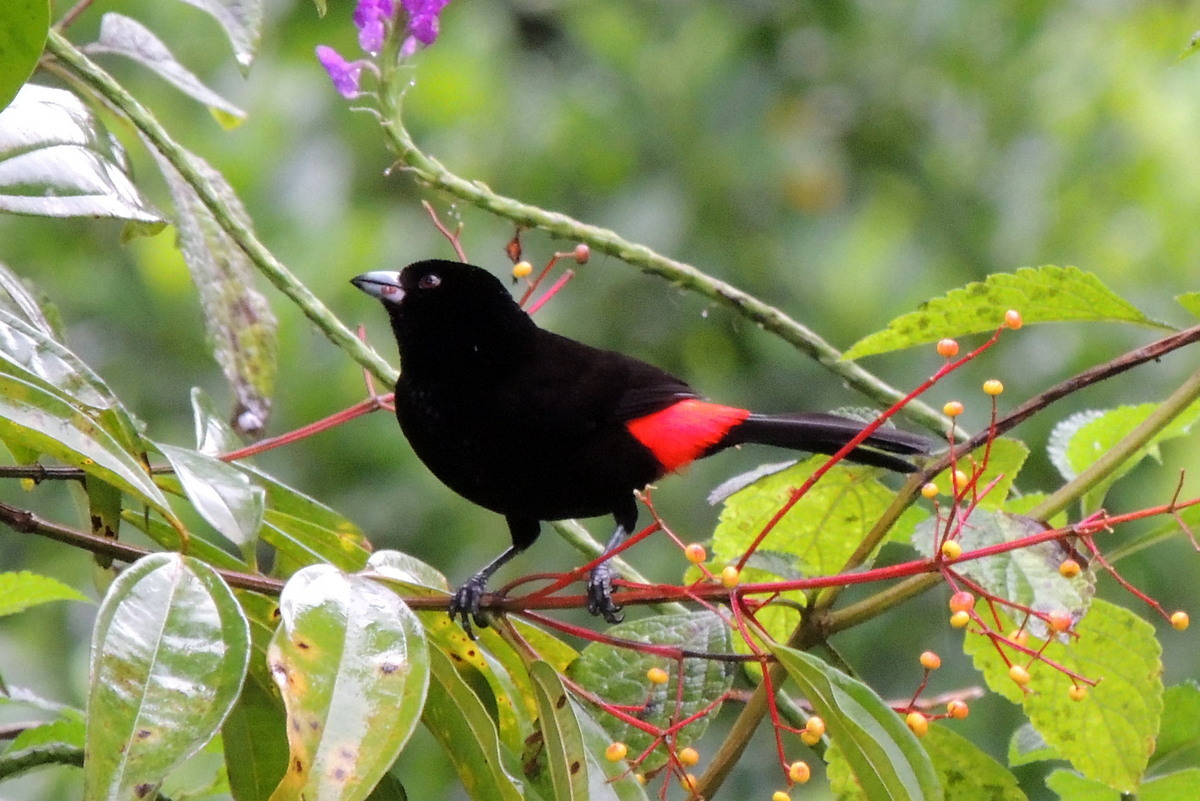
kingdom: Animalia
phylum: Chordata
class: Aves
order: Passeriformes
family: Thraupidae
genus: Ramphocelus
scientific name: Ramphocelus passerinii
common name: Passerini's tanager
